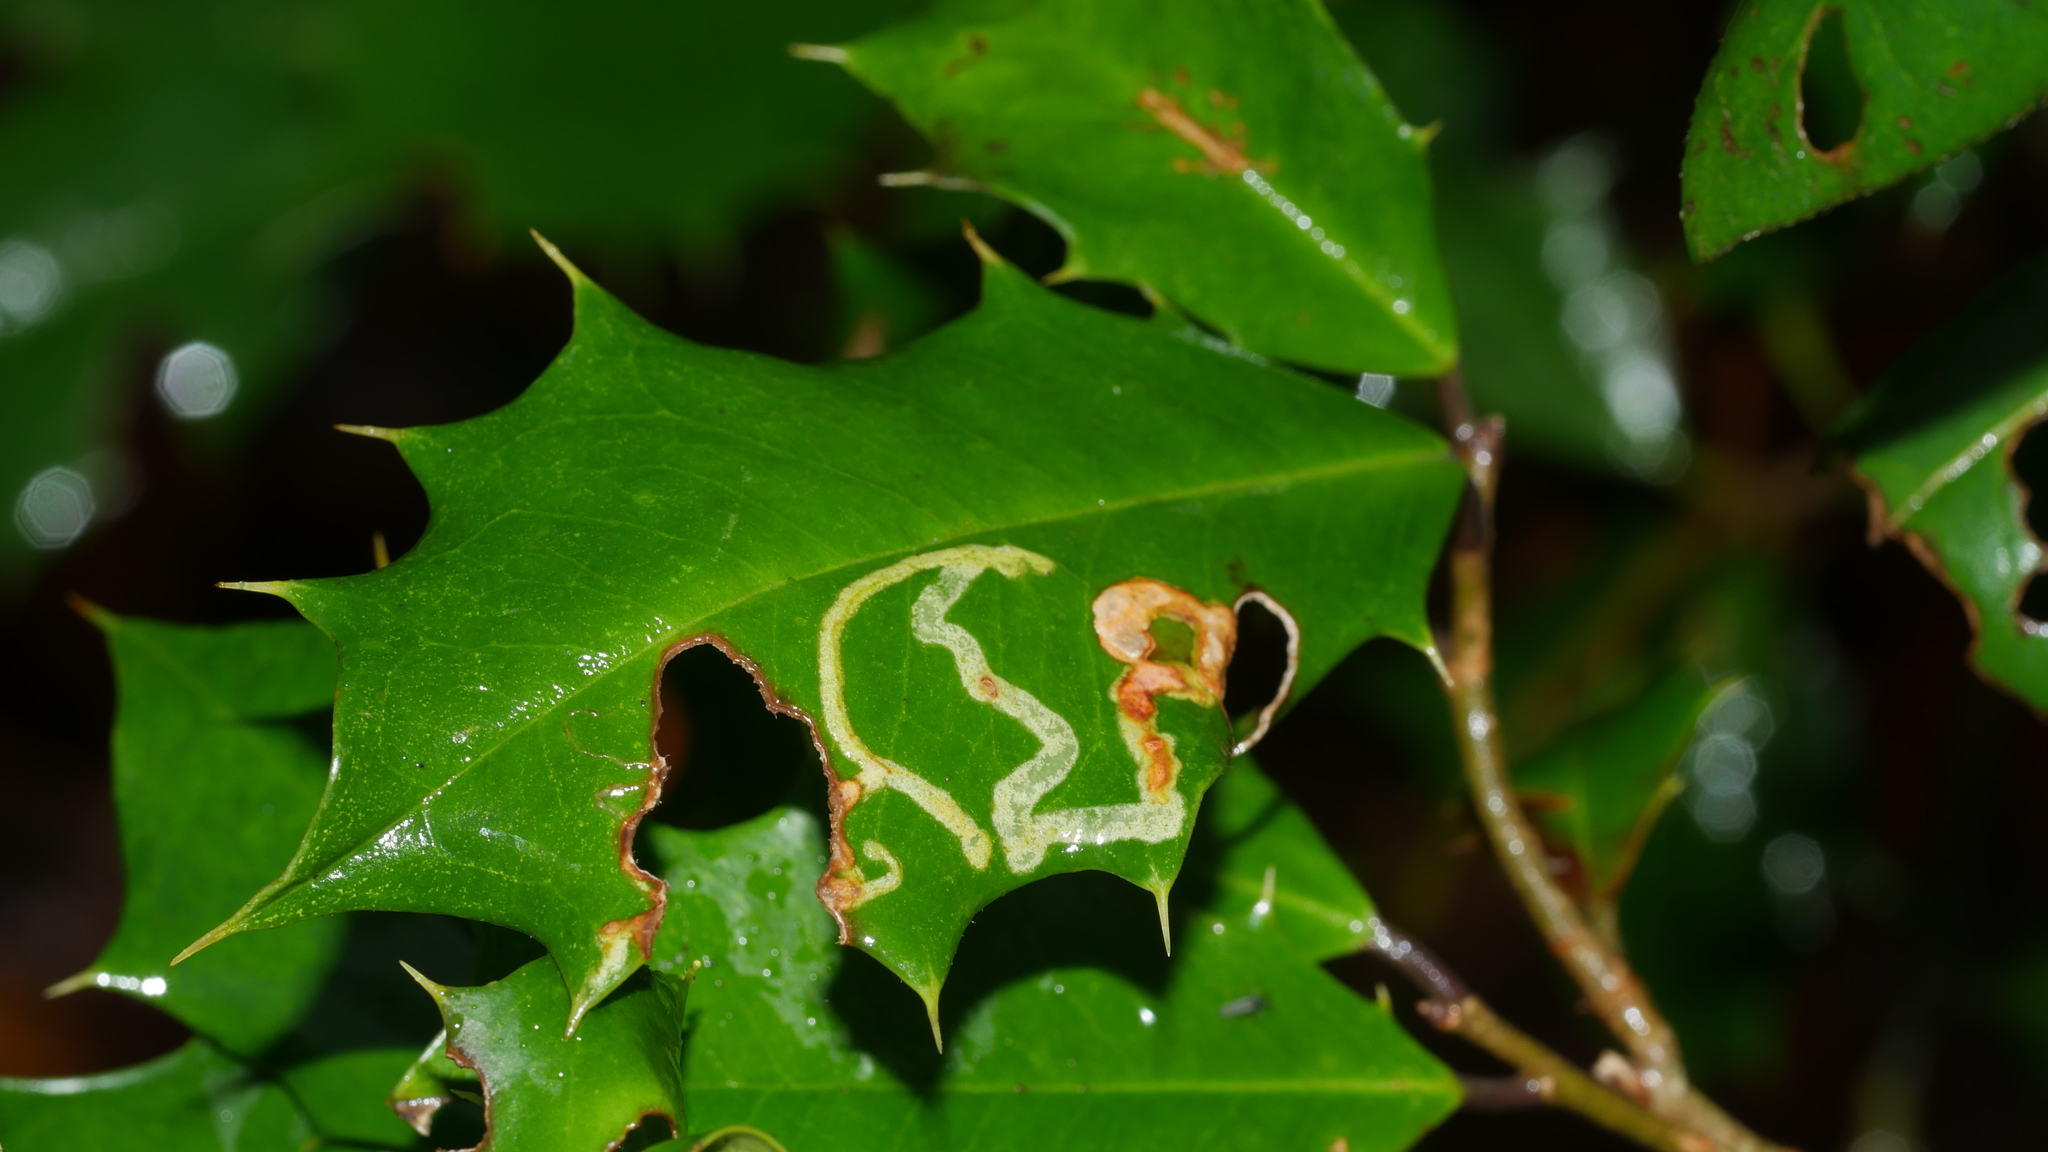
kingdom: Animalia
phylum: Arthropoda
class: Insecta
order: Diptera
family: Agromyzidae
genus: Phytomyza
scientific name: Phytomyza opacae
